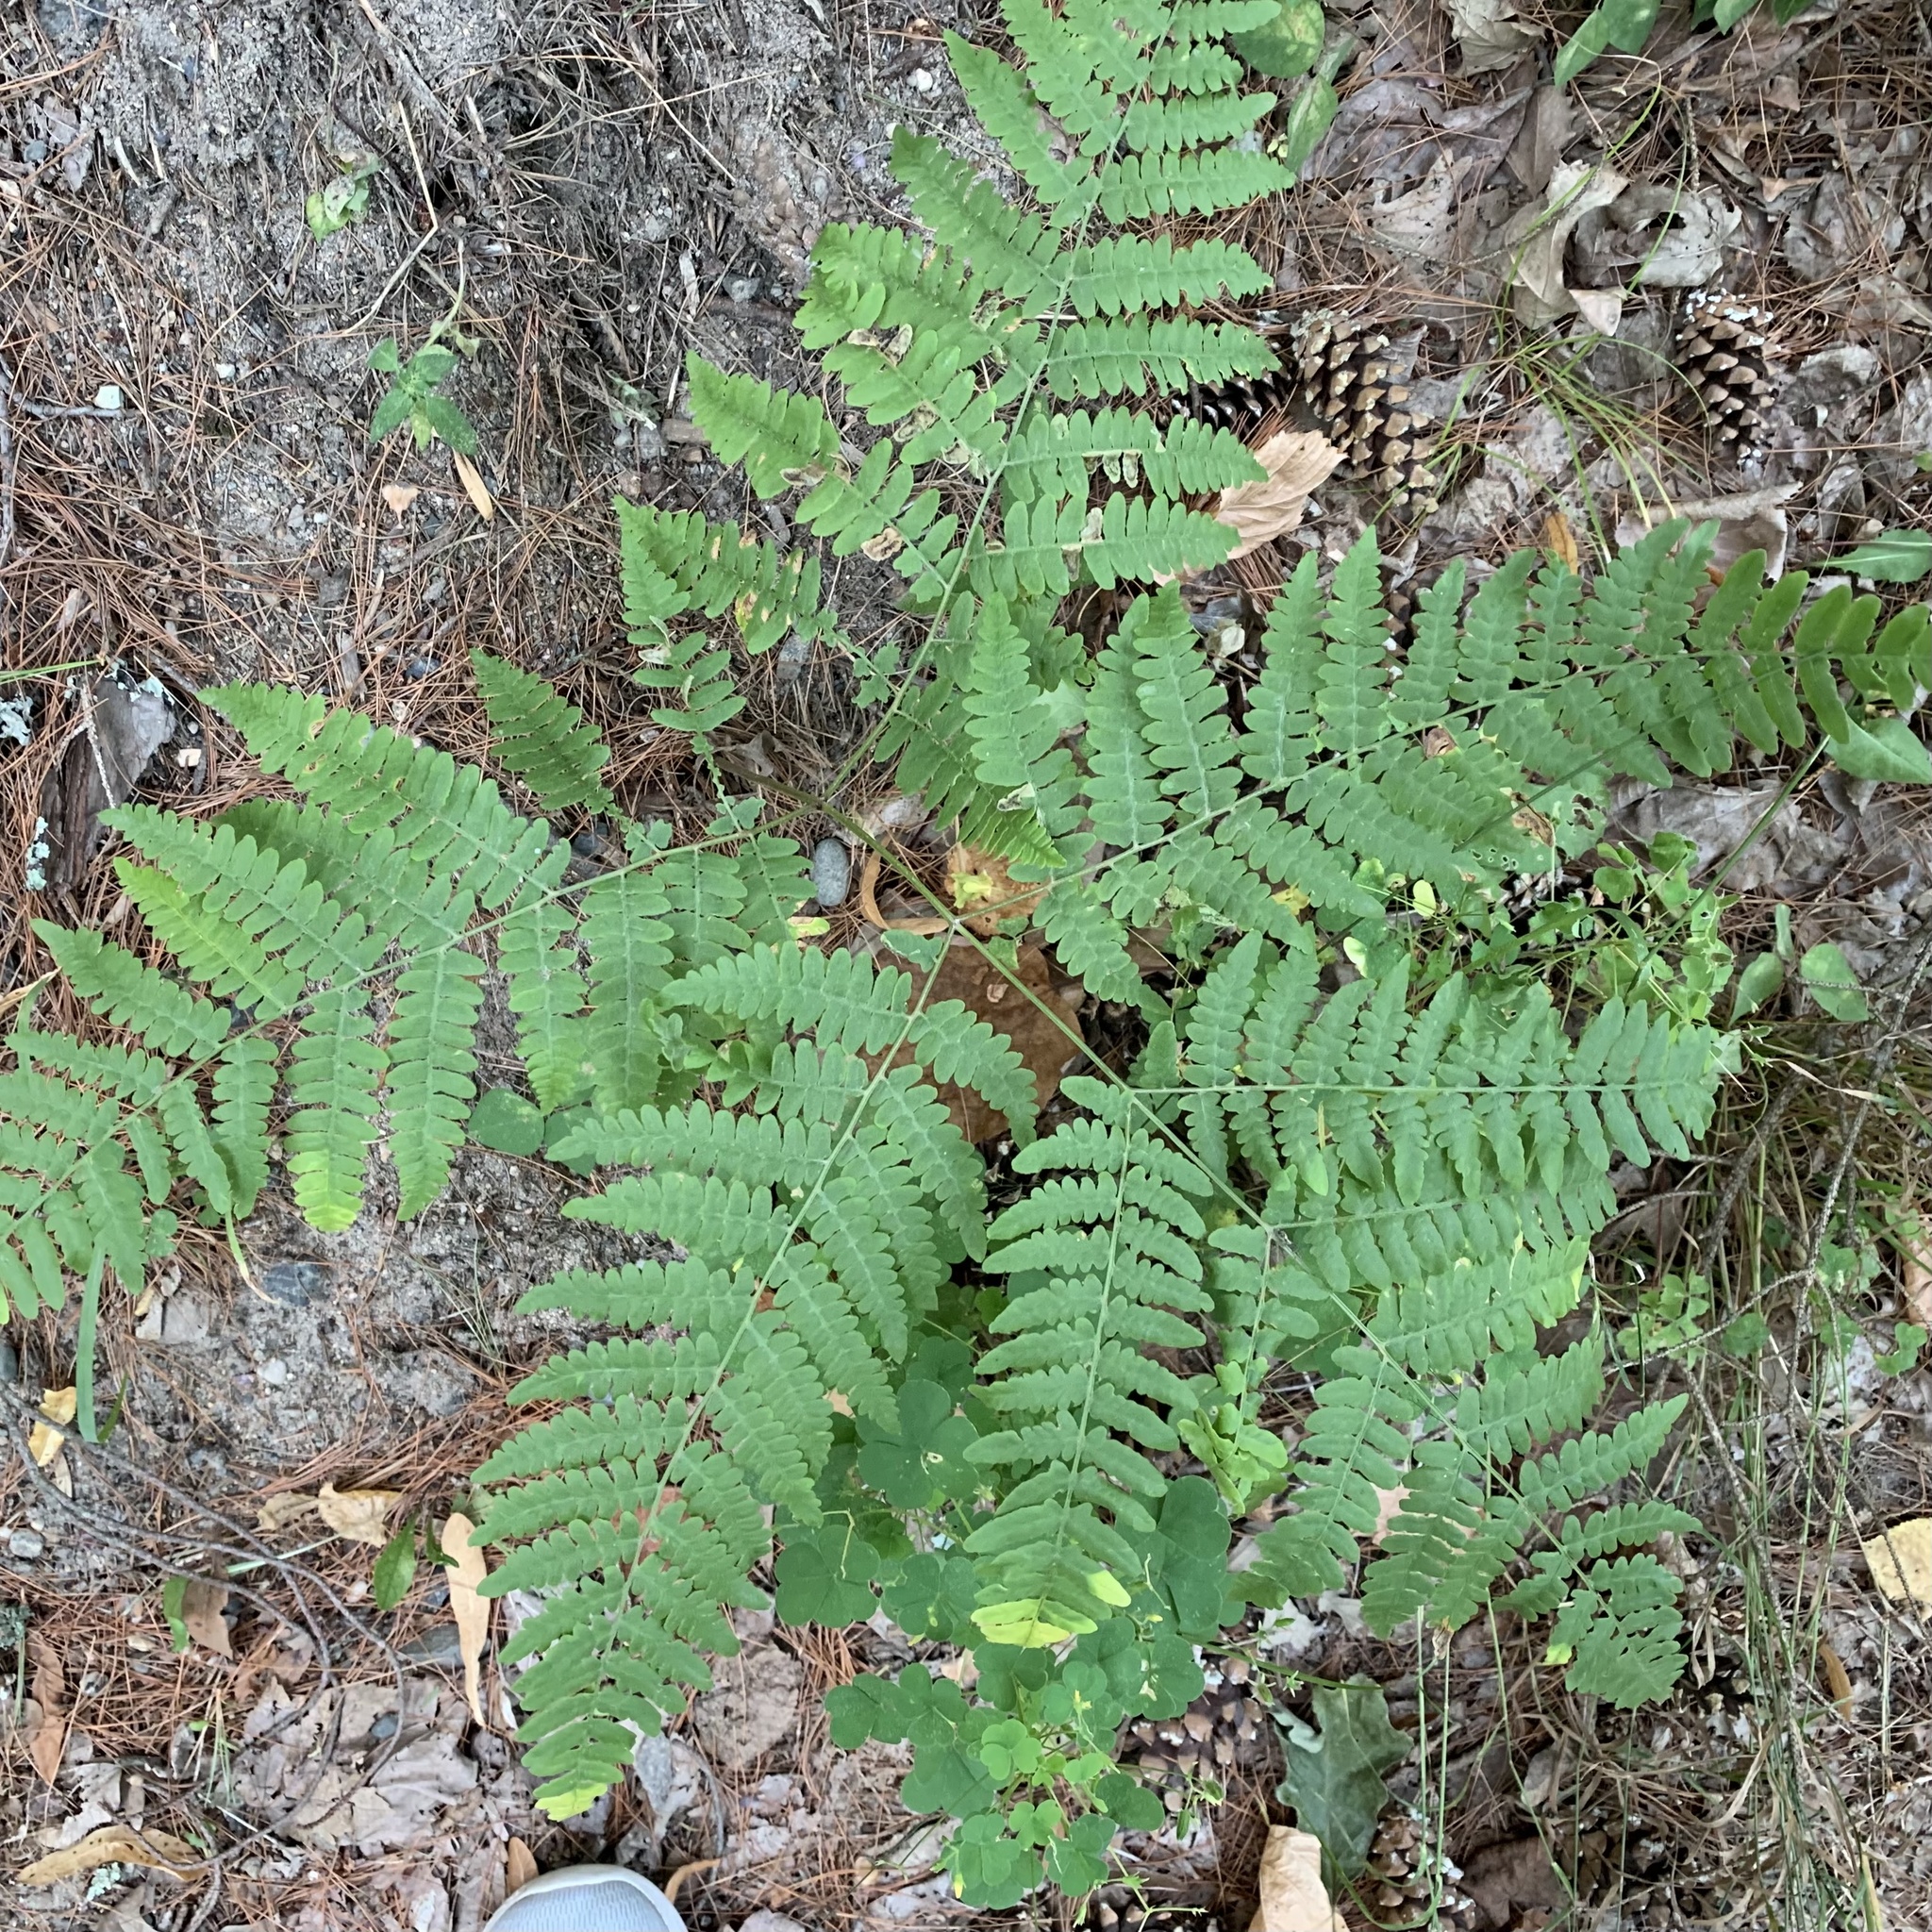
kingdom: Plantae
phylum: Tracheophyta
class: Polypodiopsida
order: Polypodiales
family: Dennstaedtiaceae
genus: Pteridium
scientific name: Pteridium aquilinum
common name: Bracken
